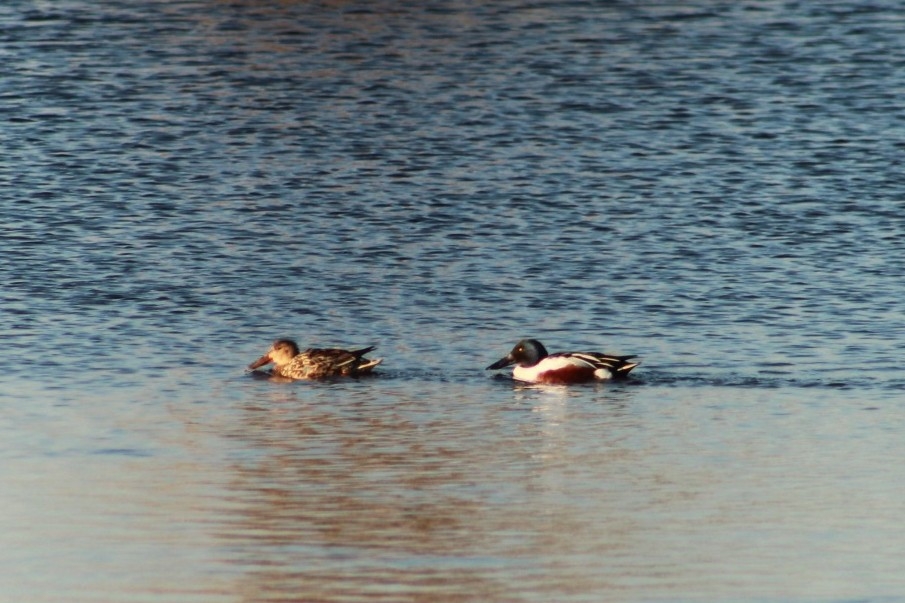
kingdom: Animalia
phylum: Chordata
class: Aves
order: Anseriformes
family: Anatidae
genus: Spatula
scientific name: Spatula clypeata
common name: Northern shoveler
